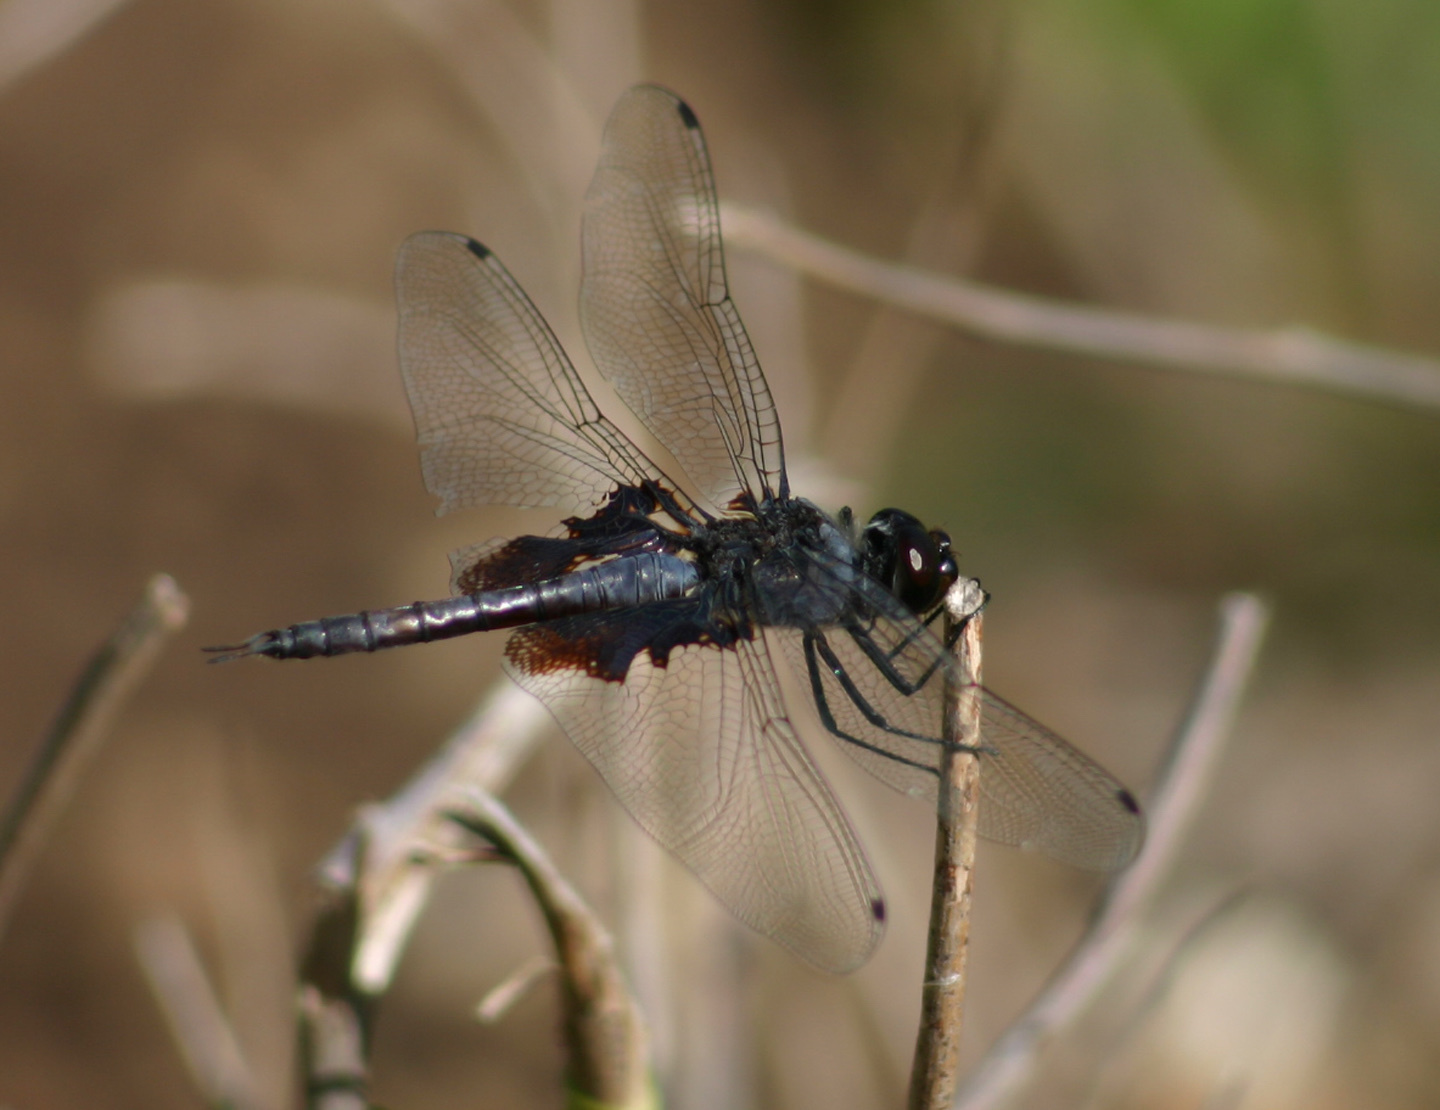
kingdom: Animalia
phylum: Arthropoda
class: Insecta
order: Odonata
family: Libellulidae
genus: Tramea
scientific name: Tramea lacerata
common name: Black saddlebags
